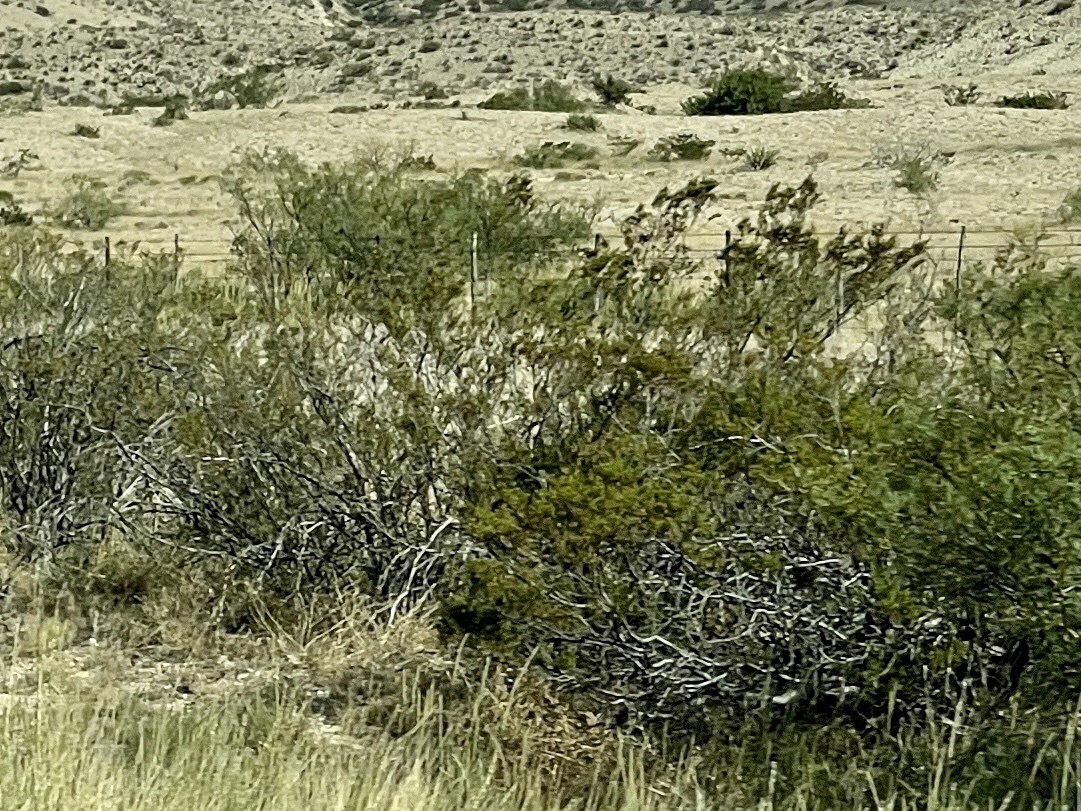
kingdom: Plantae
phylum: Tracheophyta
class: Magnoliopsida
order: Zygophyllales
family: Zygophyllaceae
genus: Larrea
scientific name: Larrea tridentata
